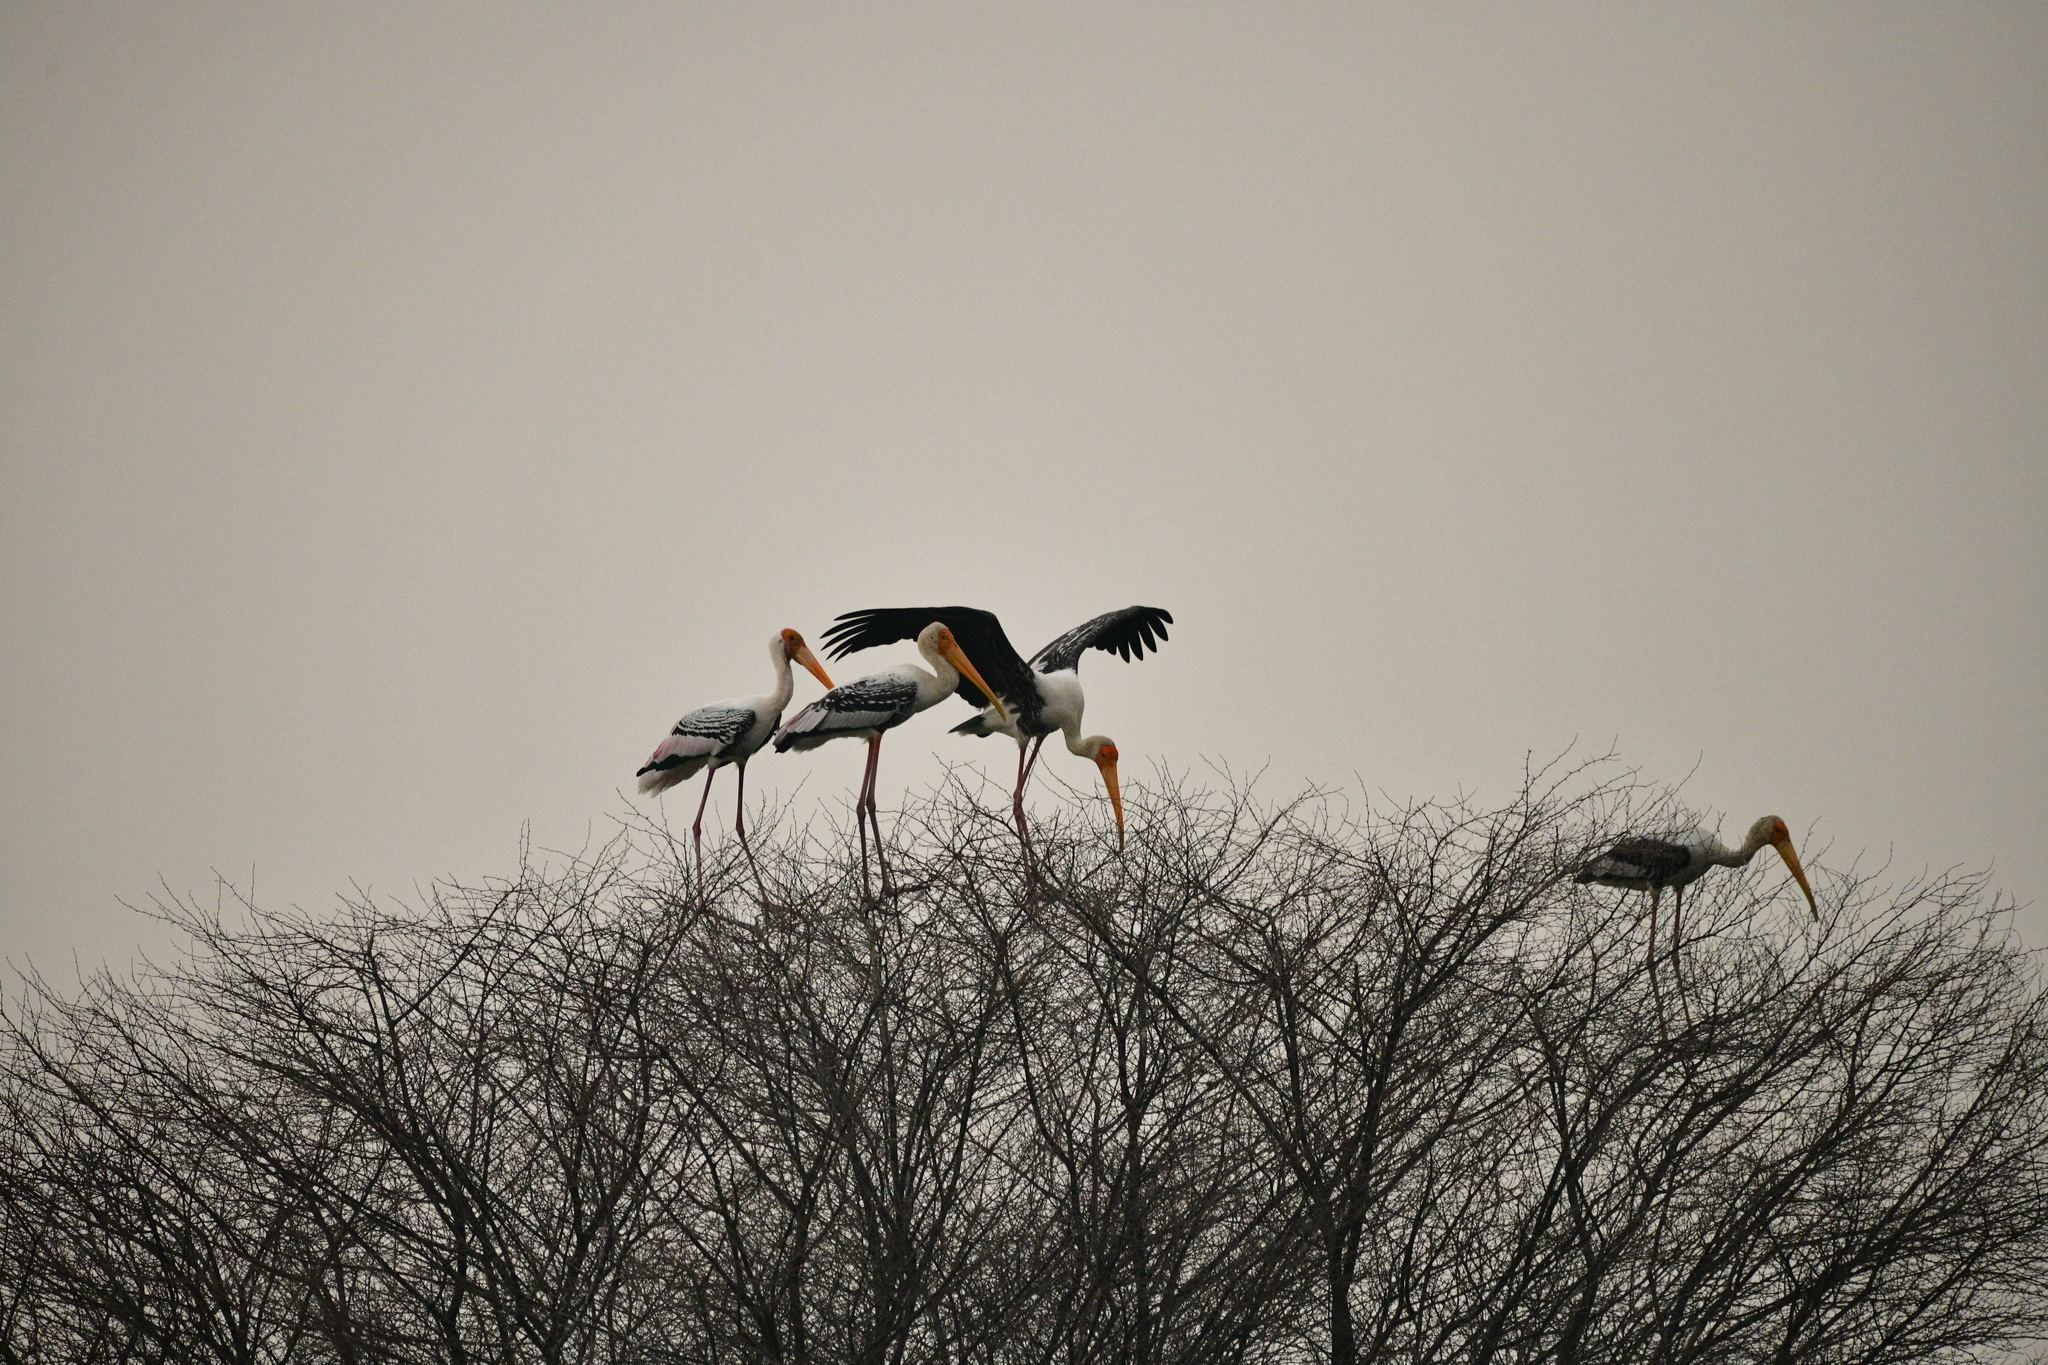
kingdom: Animalia
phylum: Chordata
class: Aves
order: Ciconiiformes
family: Ciconiidae
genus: Mycteria
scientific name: Mycteria leucocephala
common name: Painted stork
